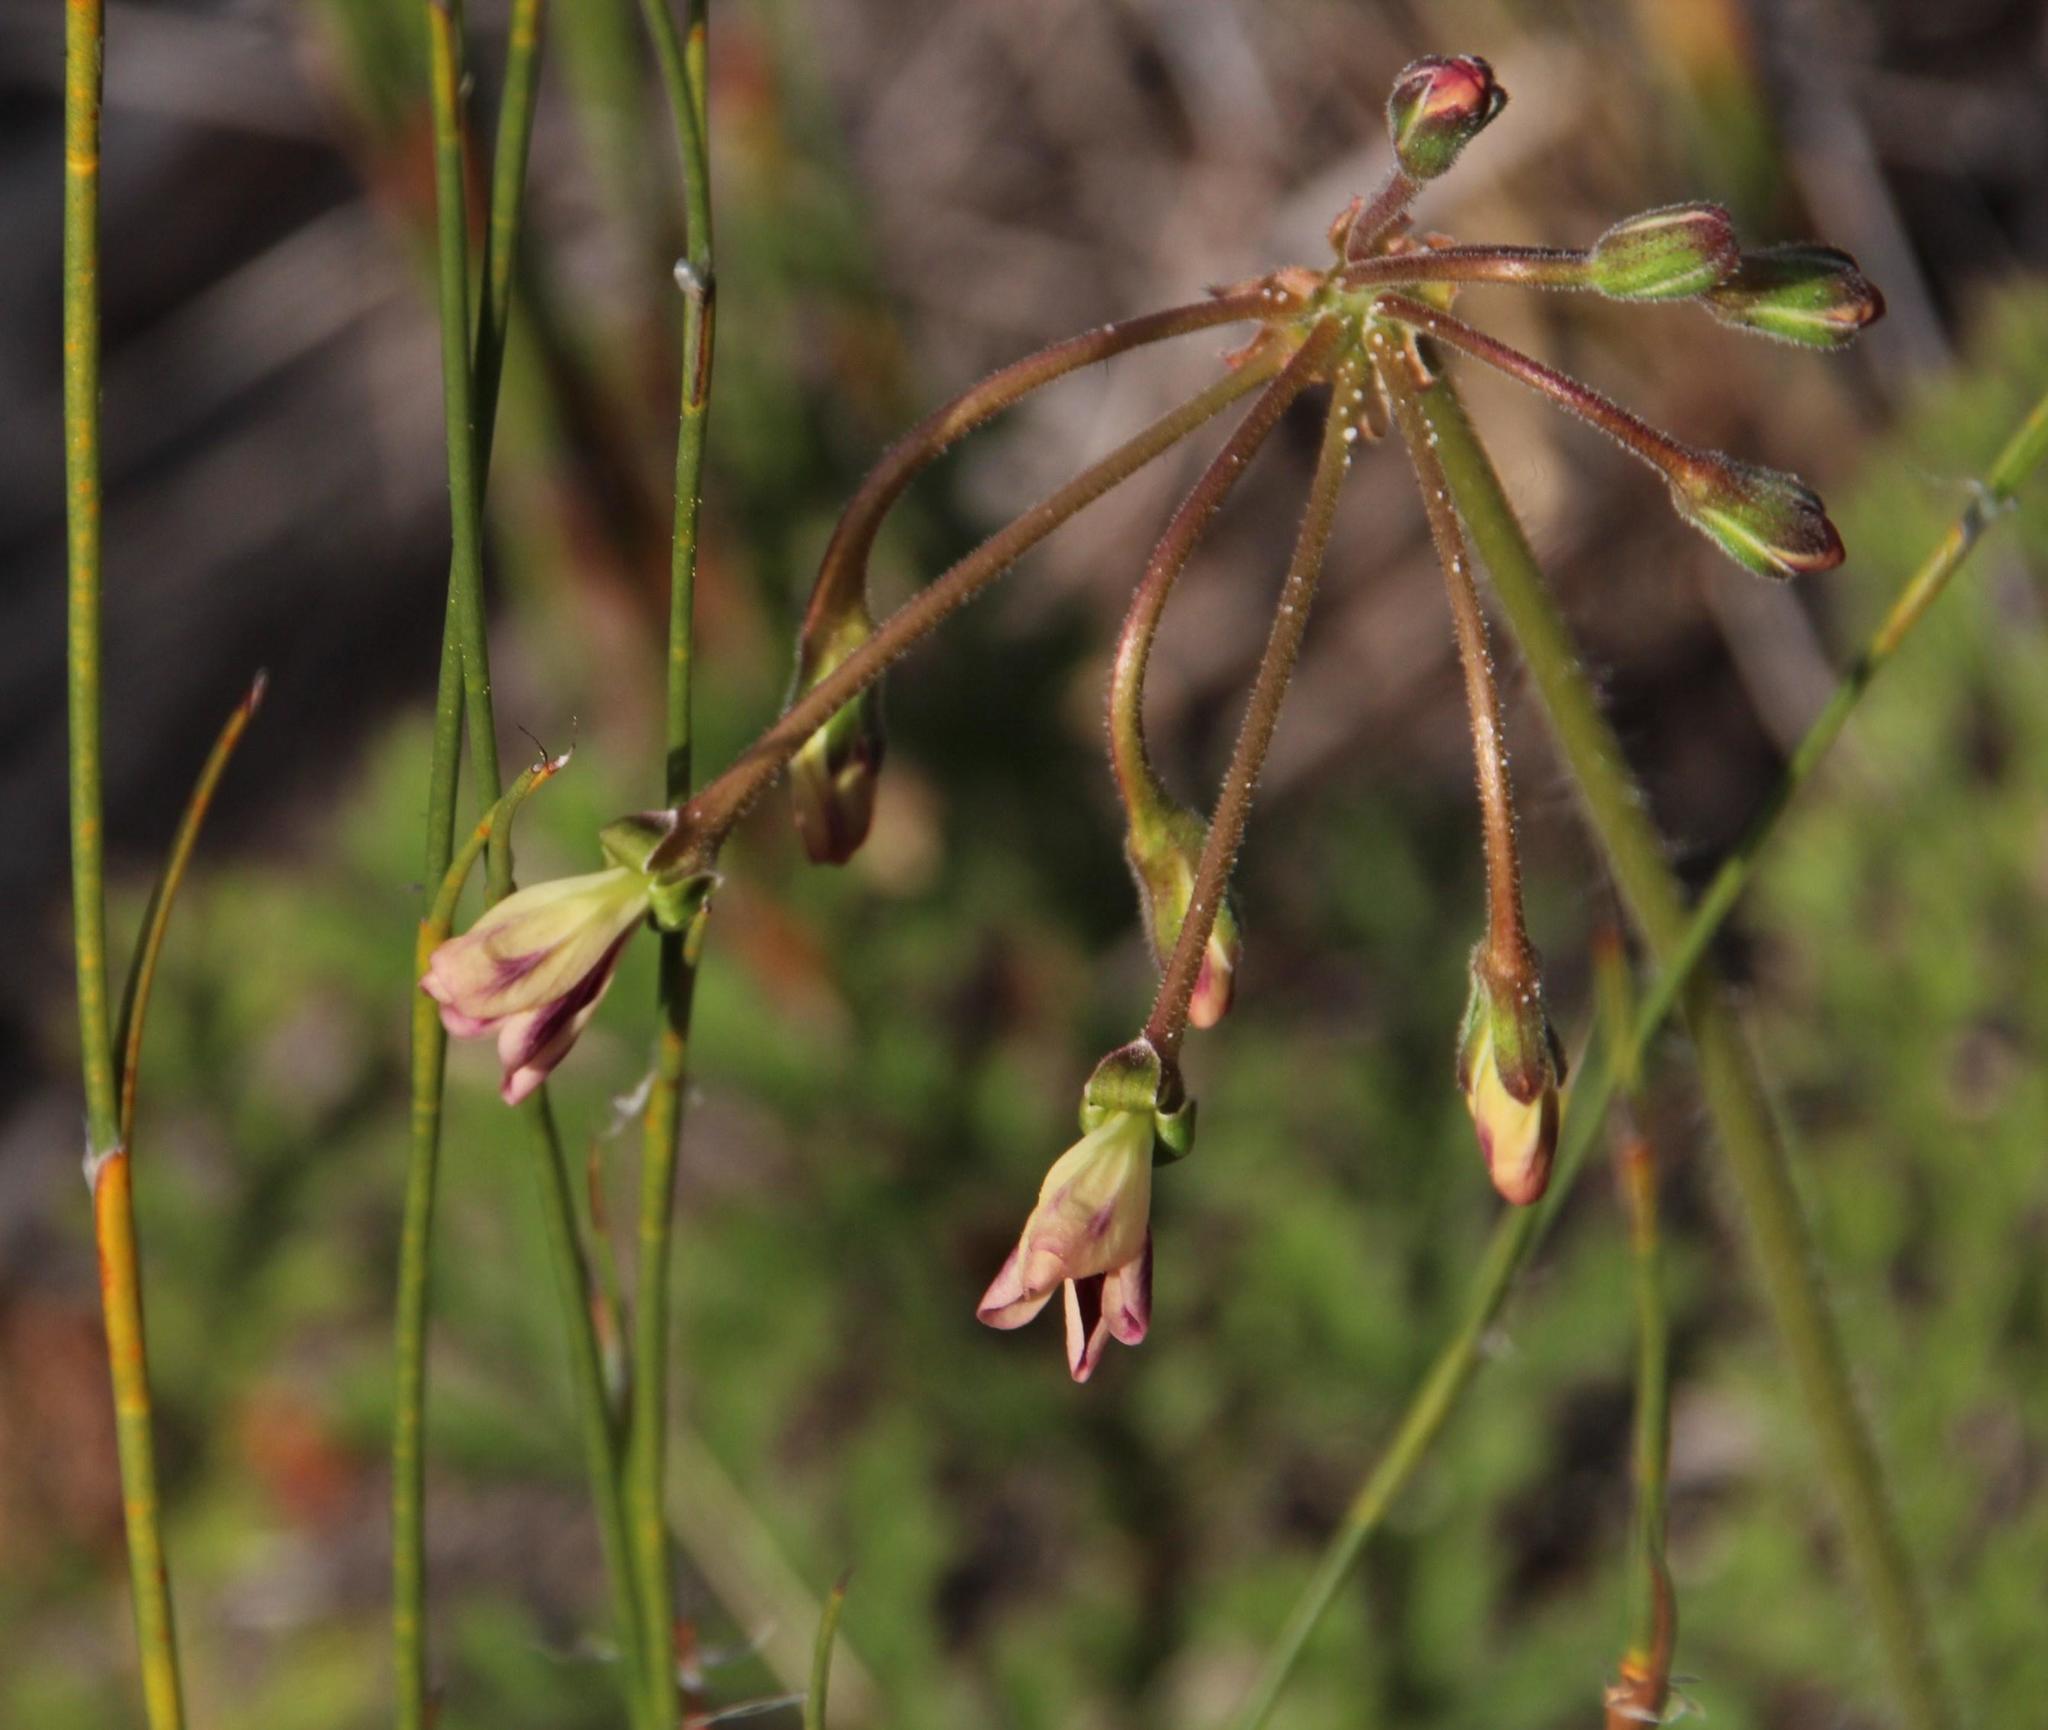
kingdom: Plantae
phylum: Tracheophyta
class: Magnoliopsida
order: Geraniales
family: Geraniaceae
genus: Pelargonium
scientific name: Pelargonium triste
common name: Night-scent pelargonium
